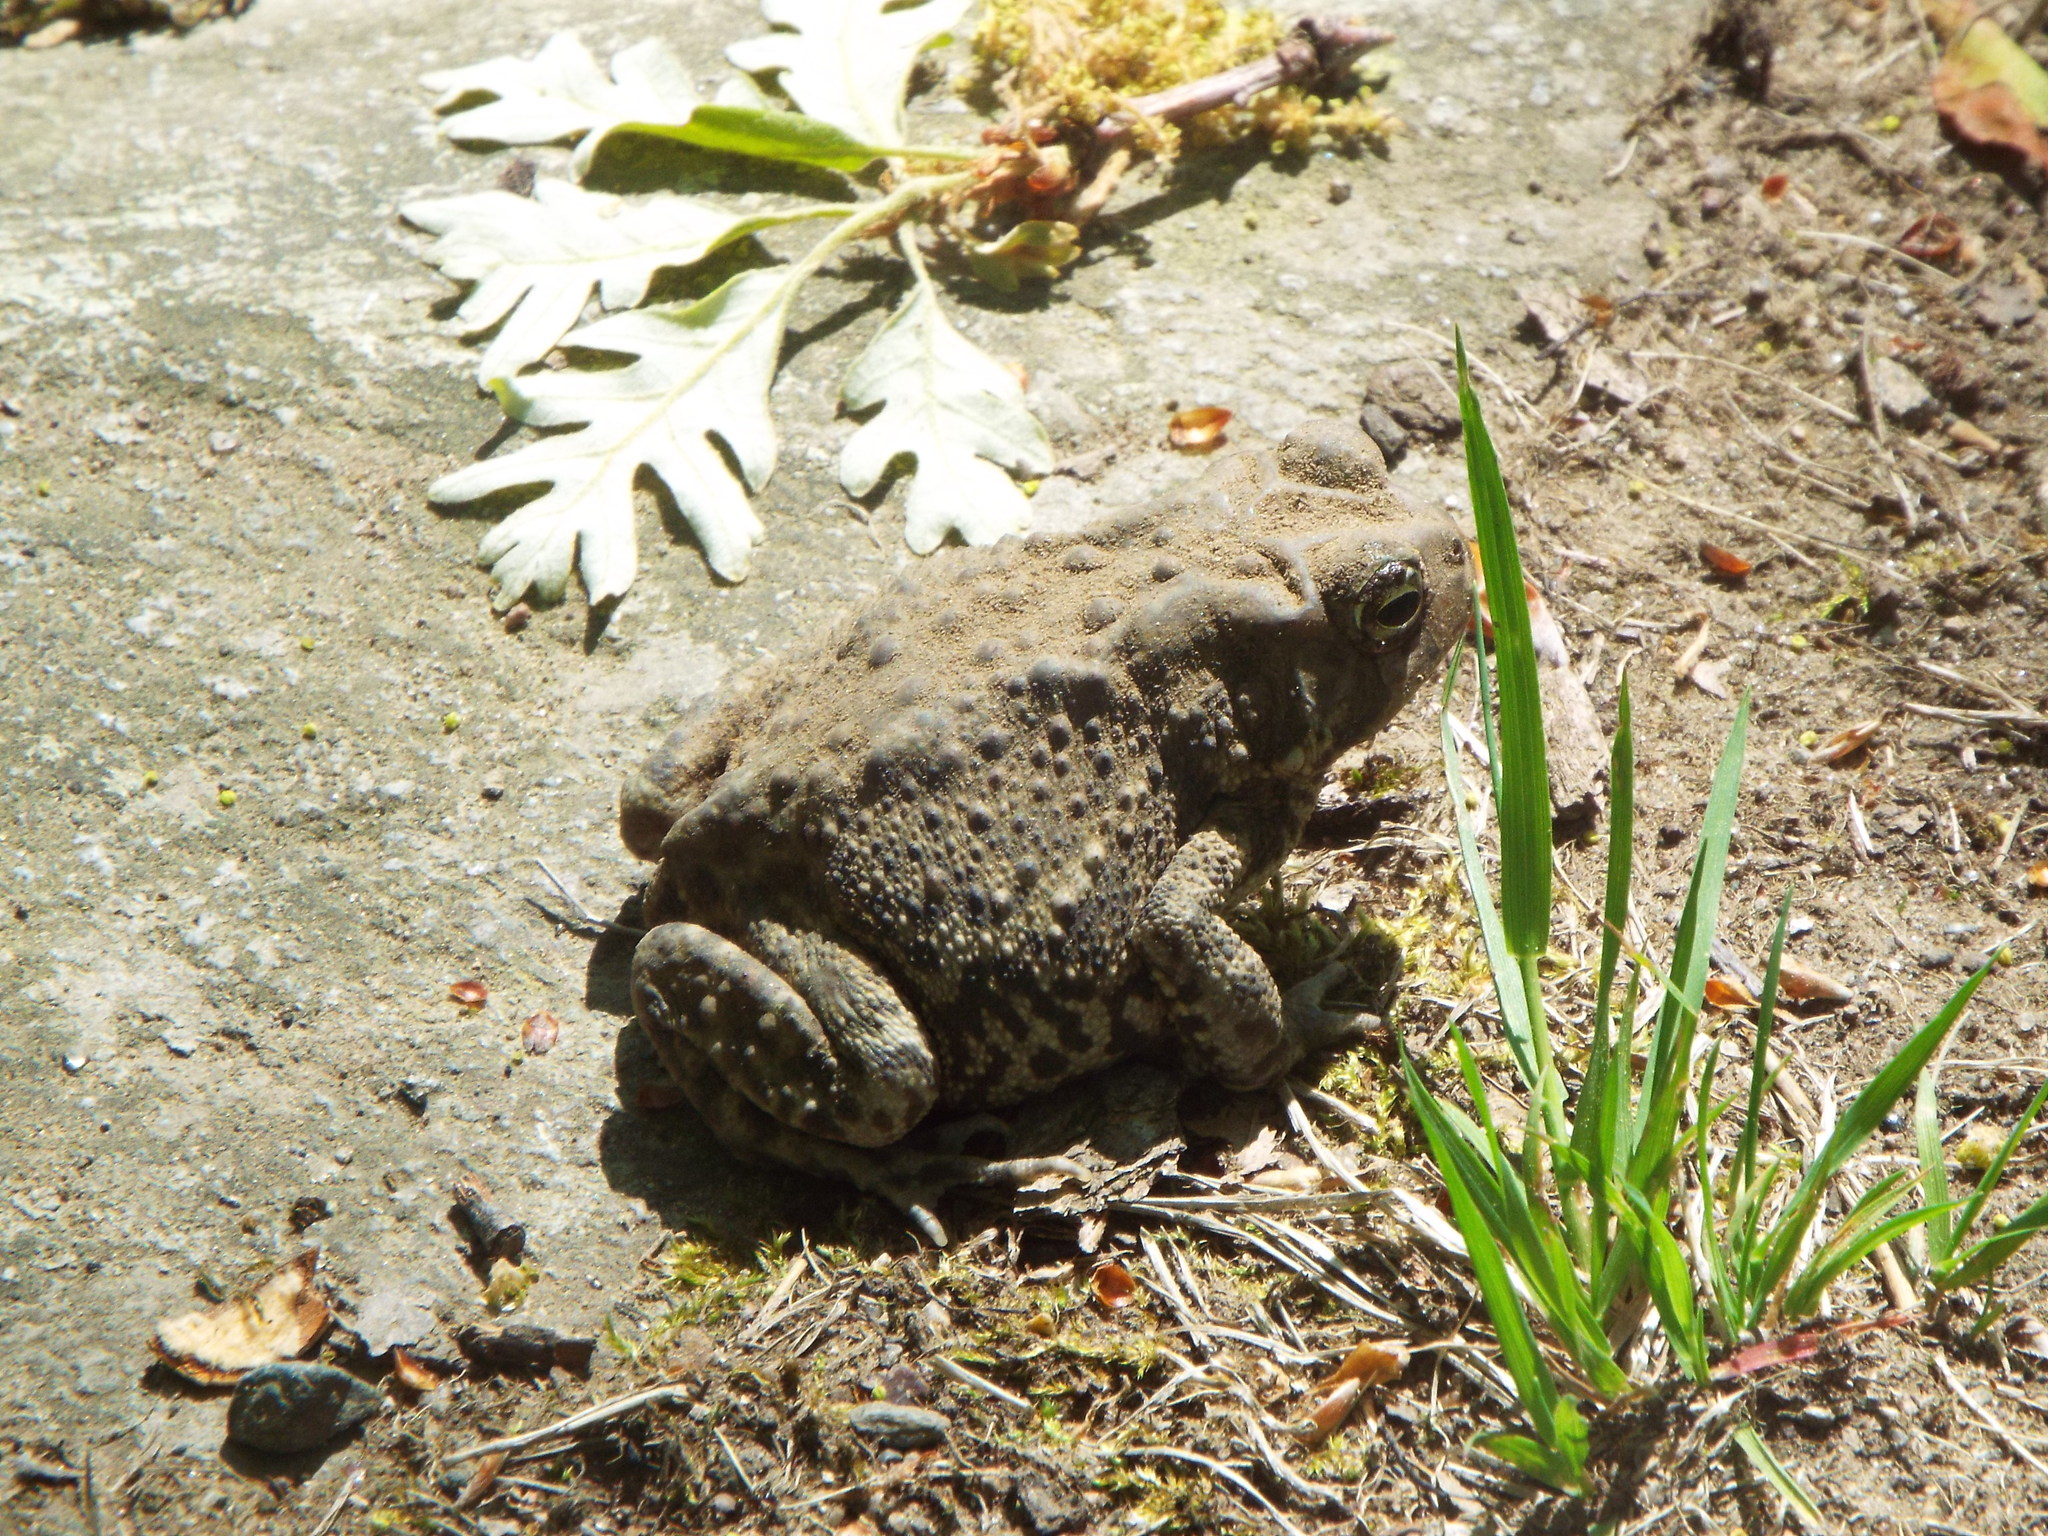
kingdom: Animalia
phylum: Chordata
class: Amphibia
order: Anura
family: Bufonidae
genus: Anaxyrus
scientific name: Anaxyrus americanus
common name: American toad
